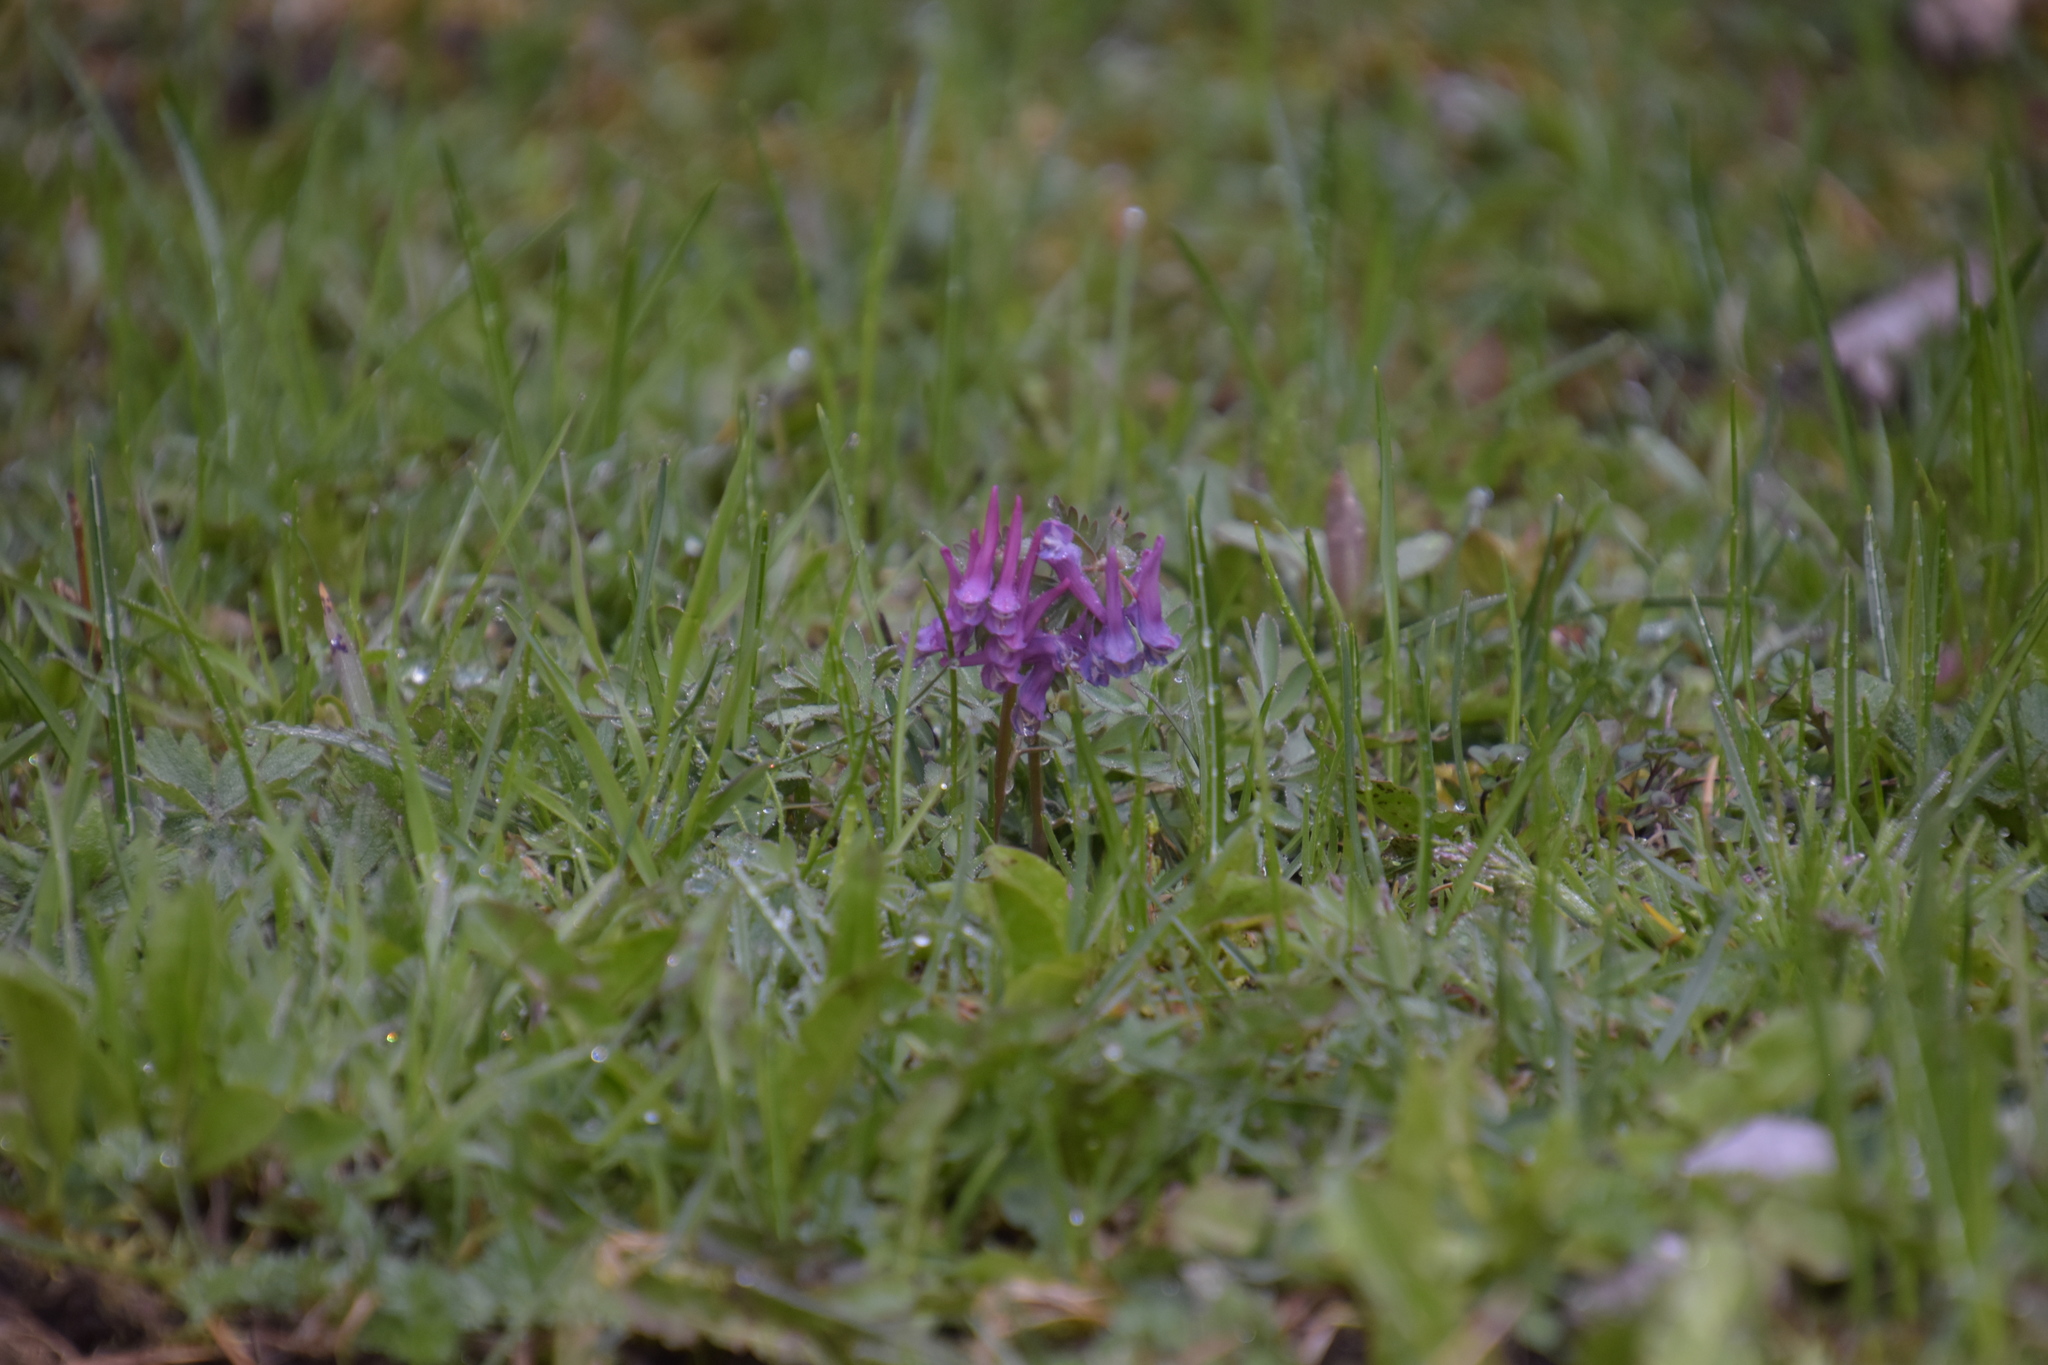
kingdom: Plantae
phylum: Tracheophyta
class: Magnoliopsida
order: Ranunculales
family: Papaveraceae
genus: Corydalis
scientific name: Corydalis solida
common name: Bird-in-a-bush
